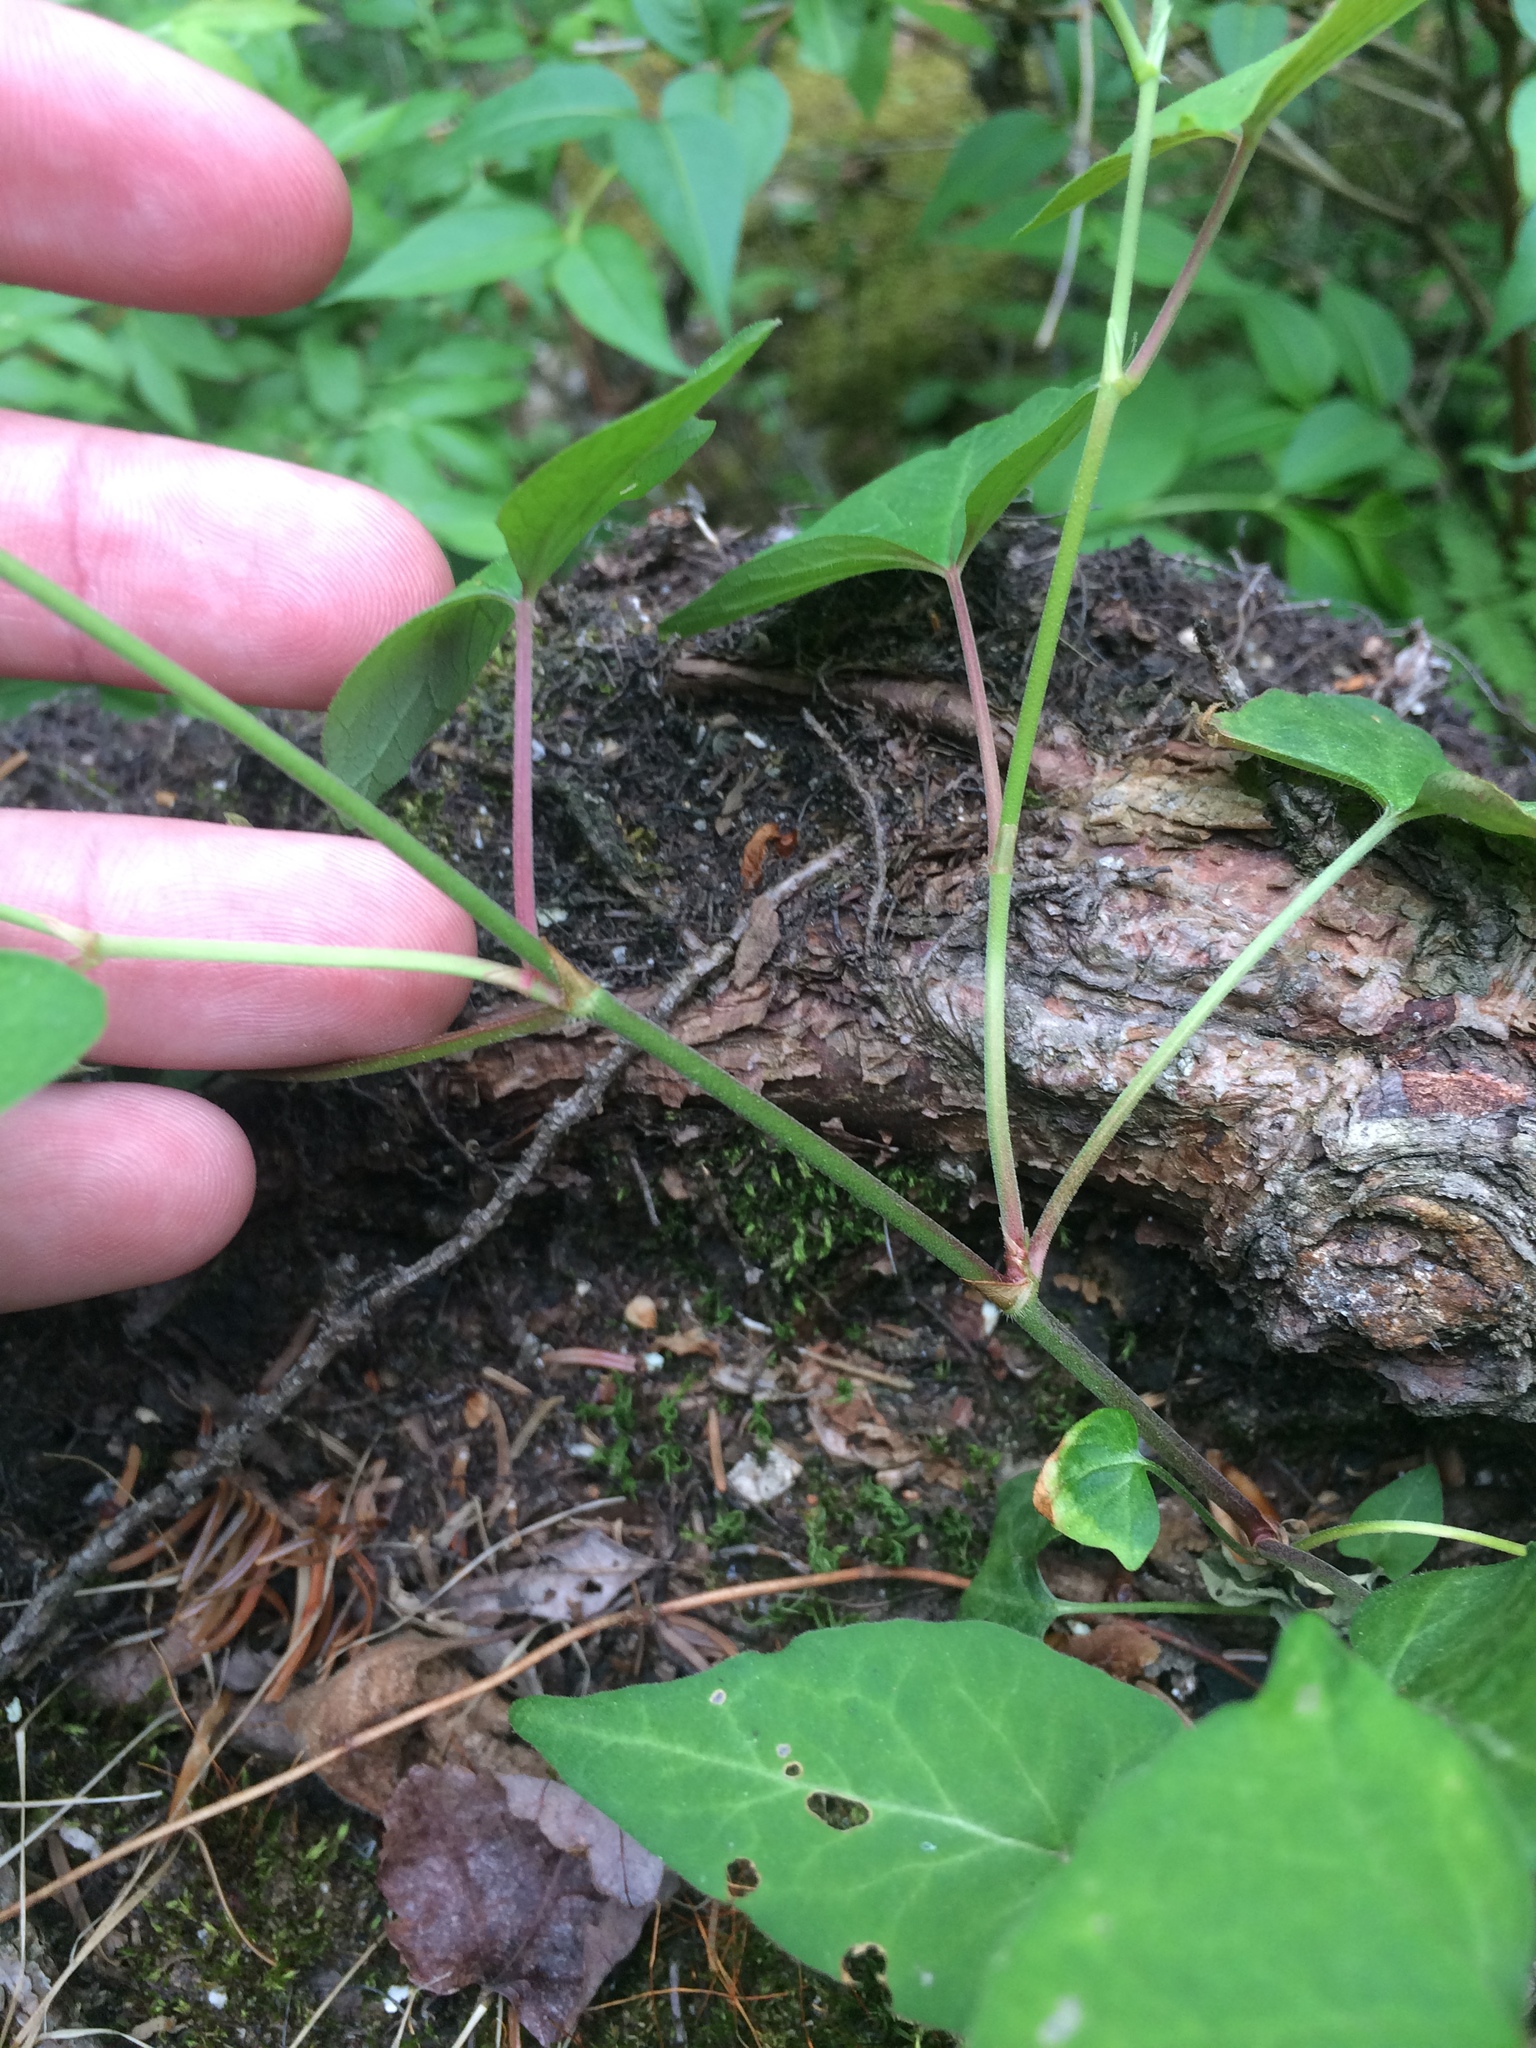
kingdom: Plantae
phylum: Tracheophyta
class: Magnoliopsida
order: Caryophyllales
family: Polygonaceae
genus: Parogonum
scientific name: Parogonum ciliinode
